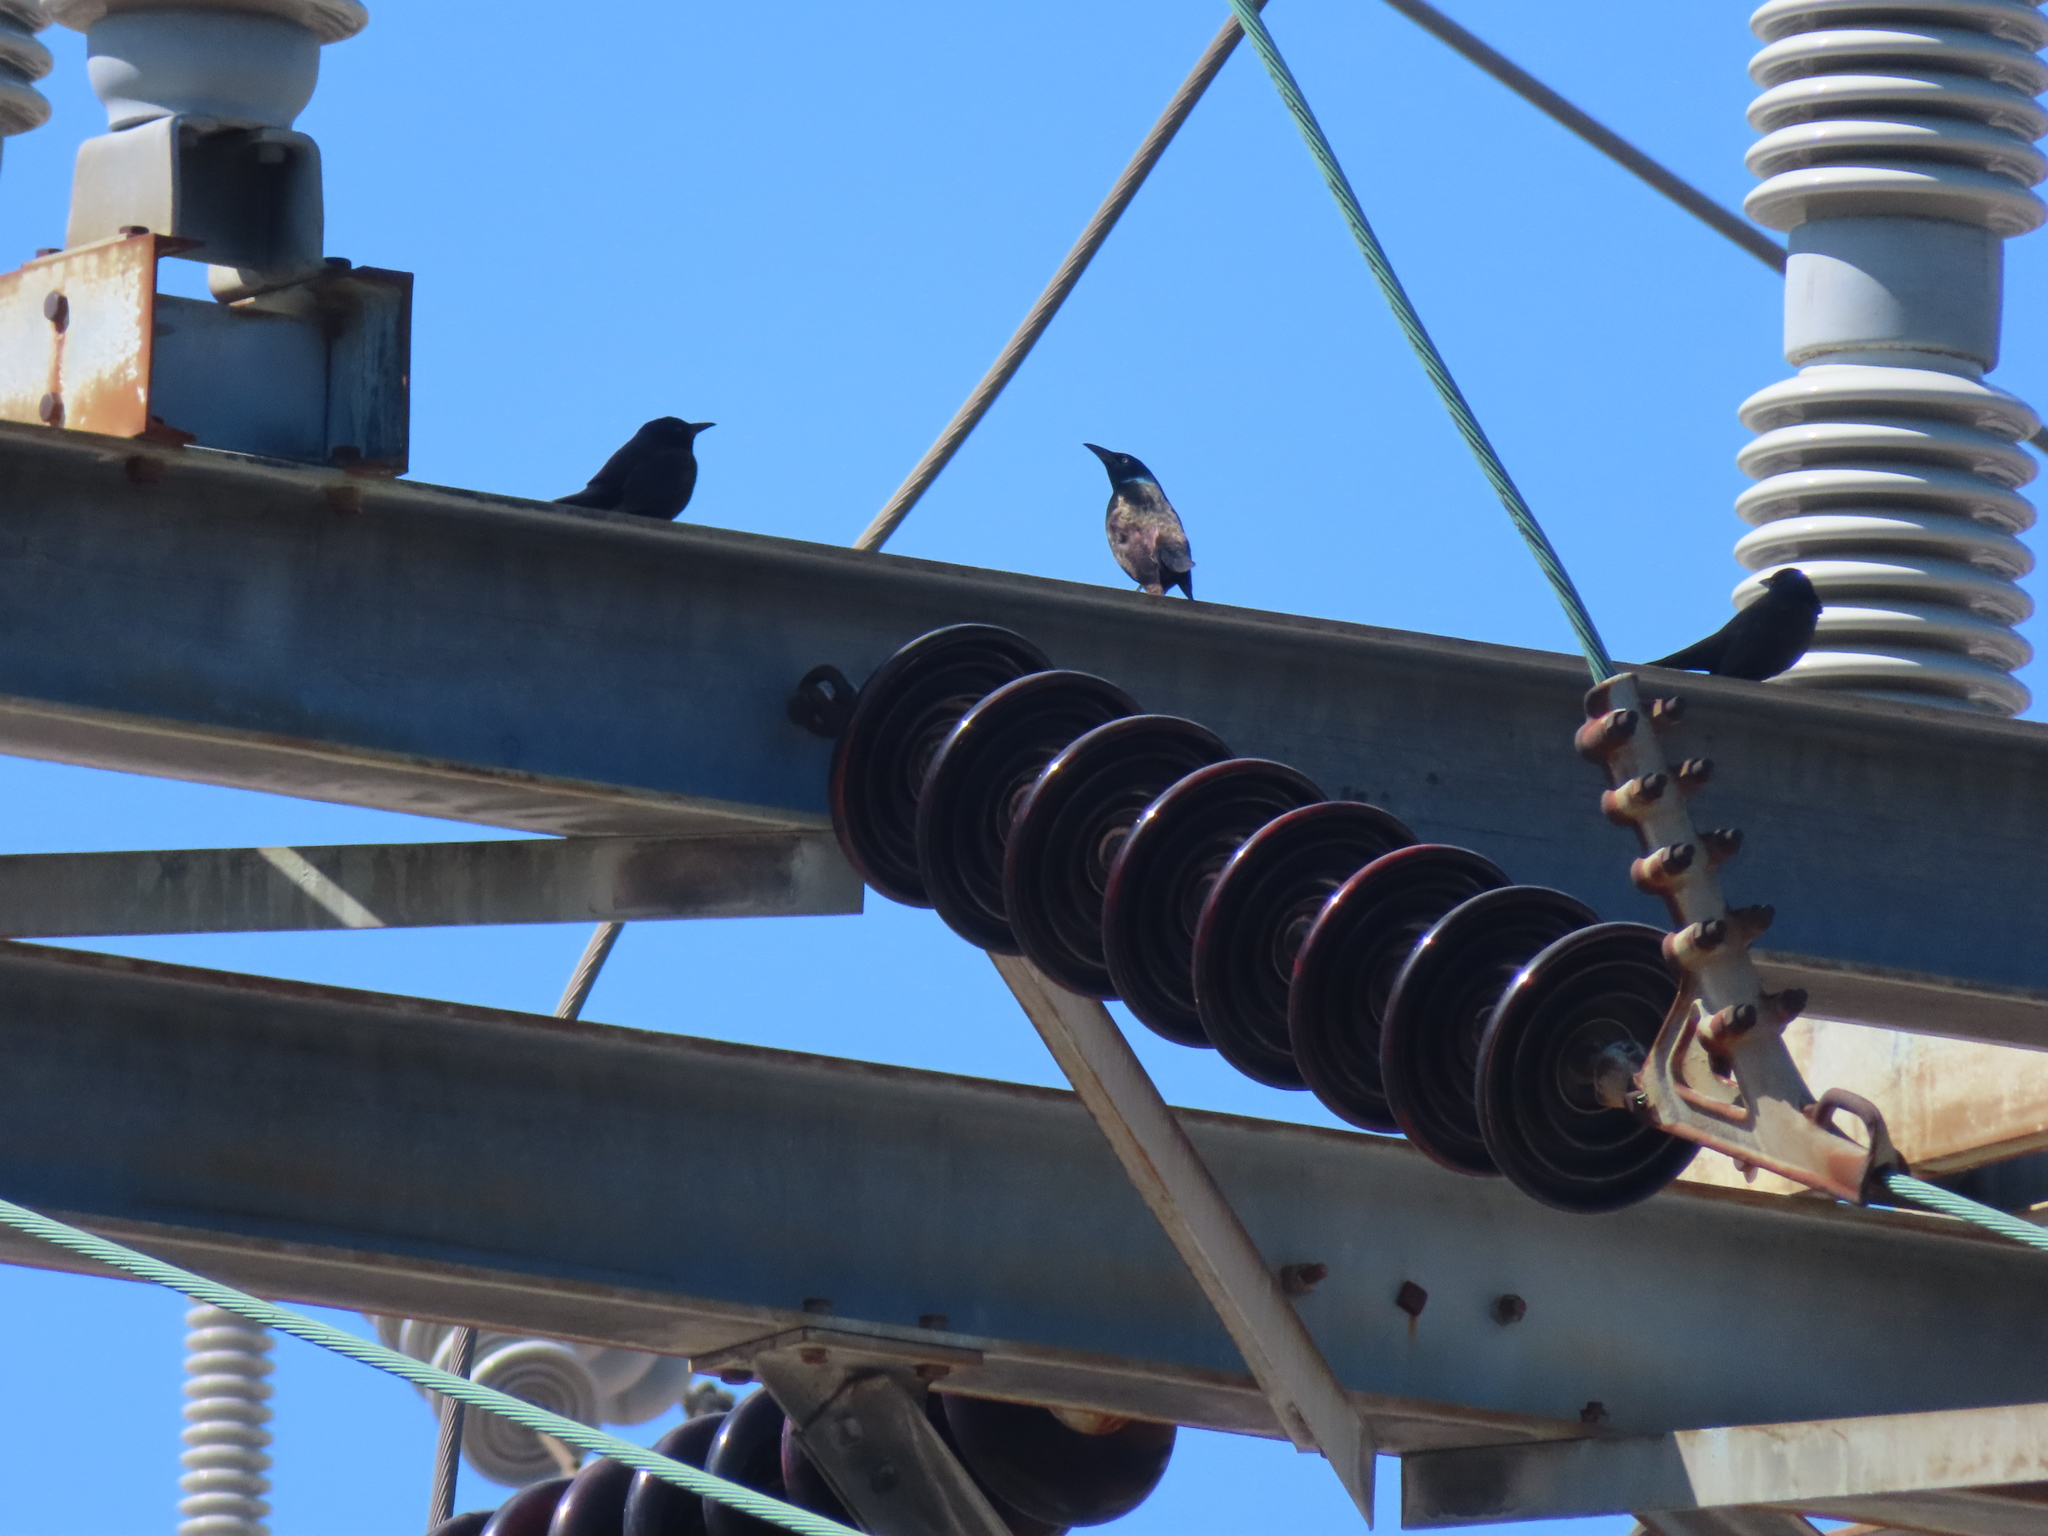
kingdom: Animalia
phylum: Chordata
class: Aves
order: Passeriformes
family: Icteridae
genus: Quiscalus
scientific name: Quiscalus quiscula
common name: Common grackle
